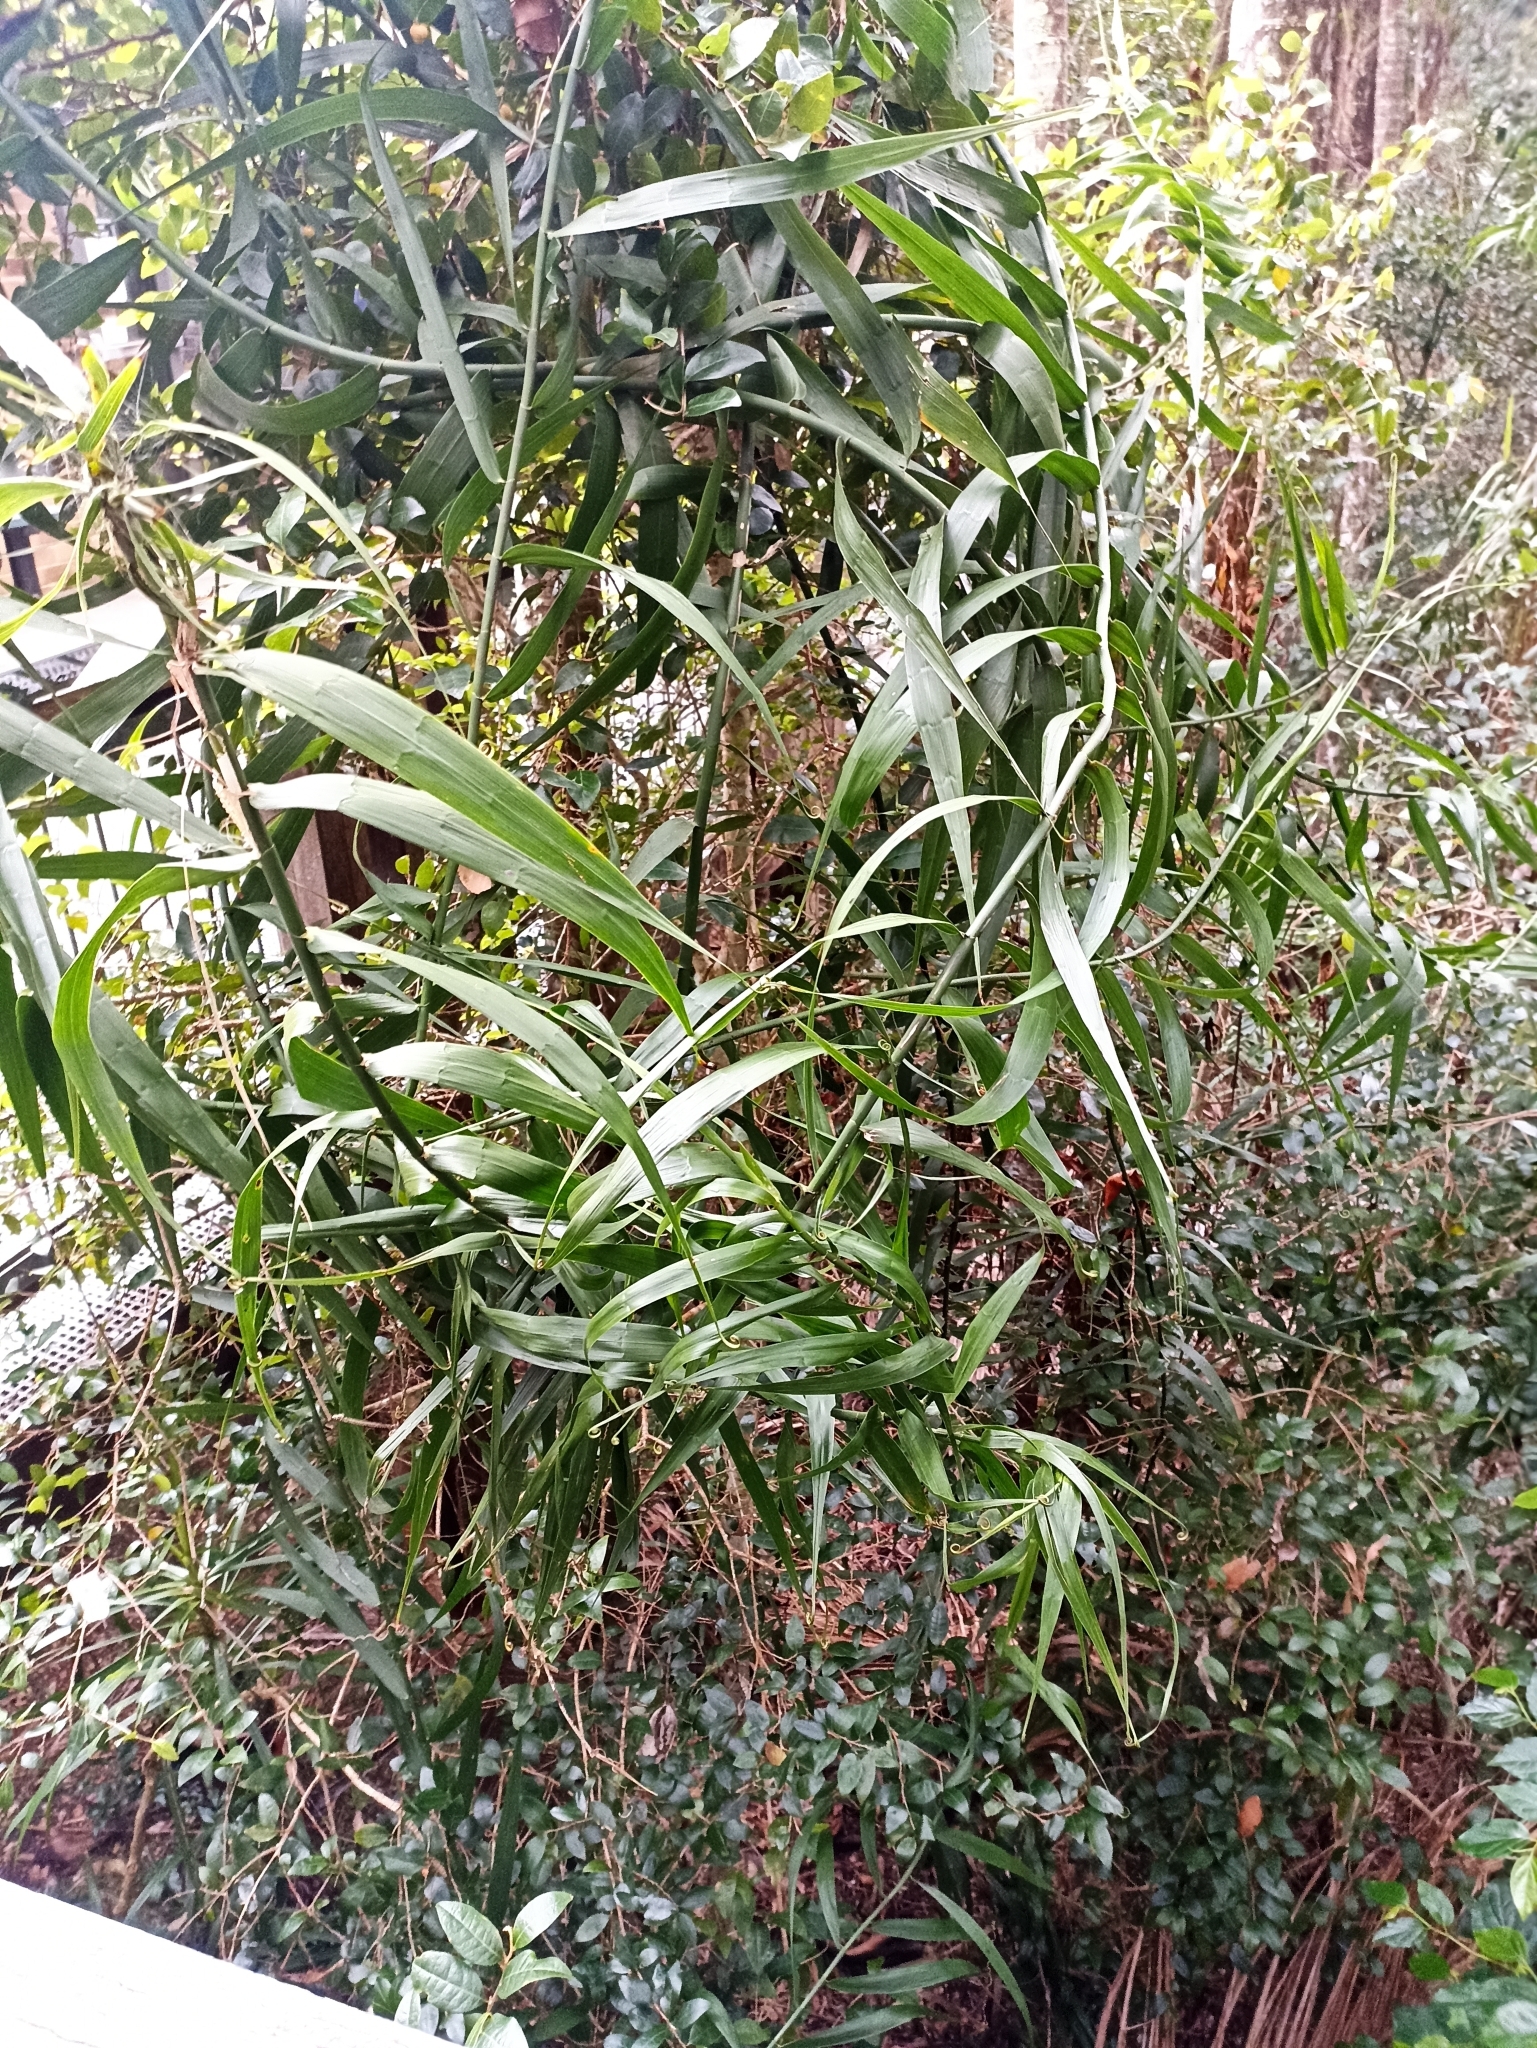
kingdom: Plantae
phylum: Tracheophyta
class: Liliopsida
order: Poales
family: Flagellariaceae
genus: Flagellaria
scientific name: Flagellaria indica
